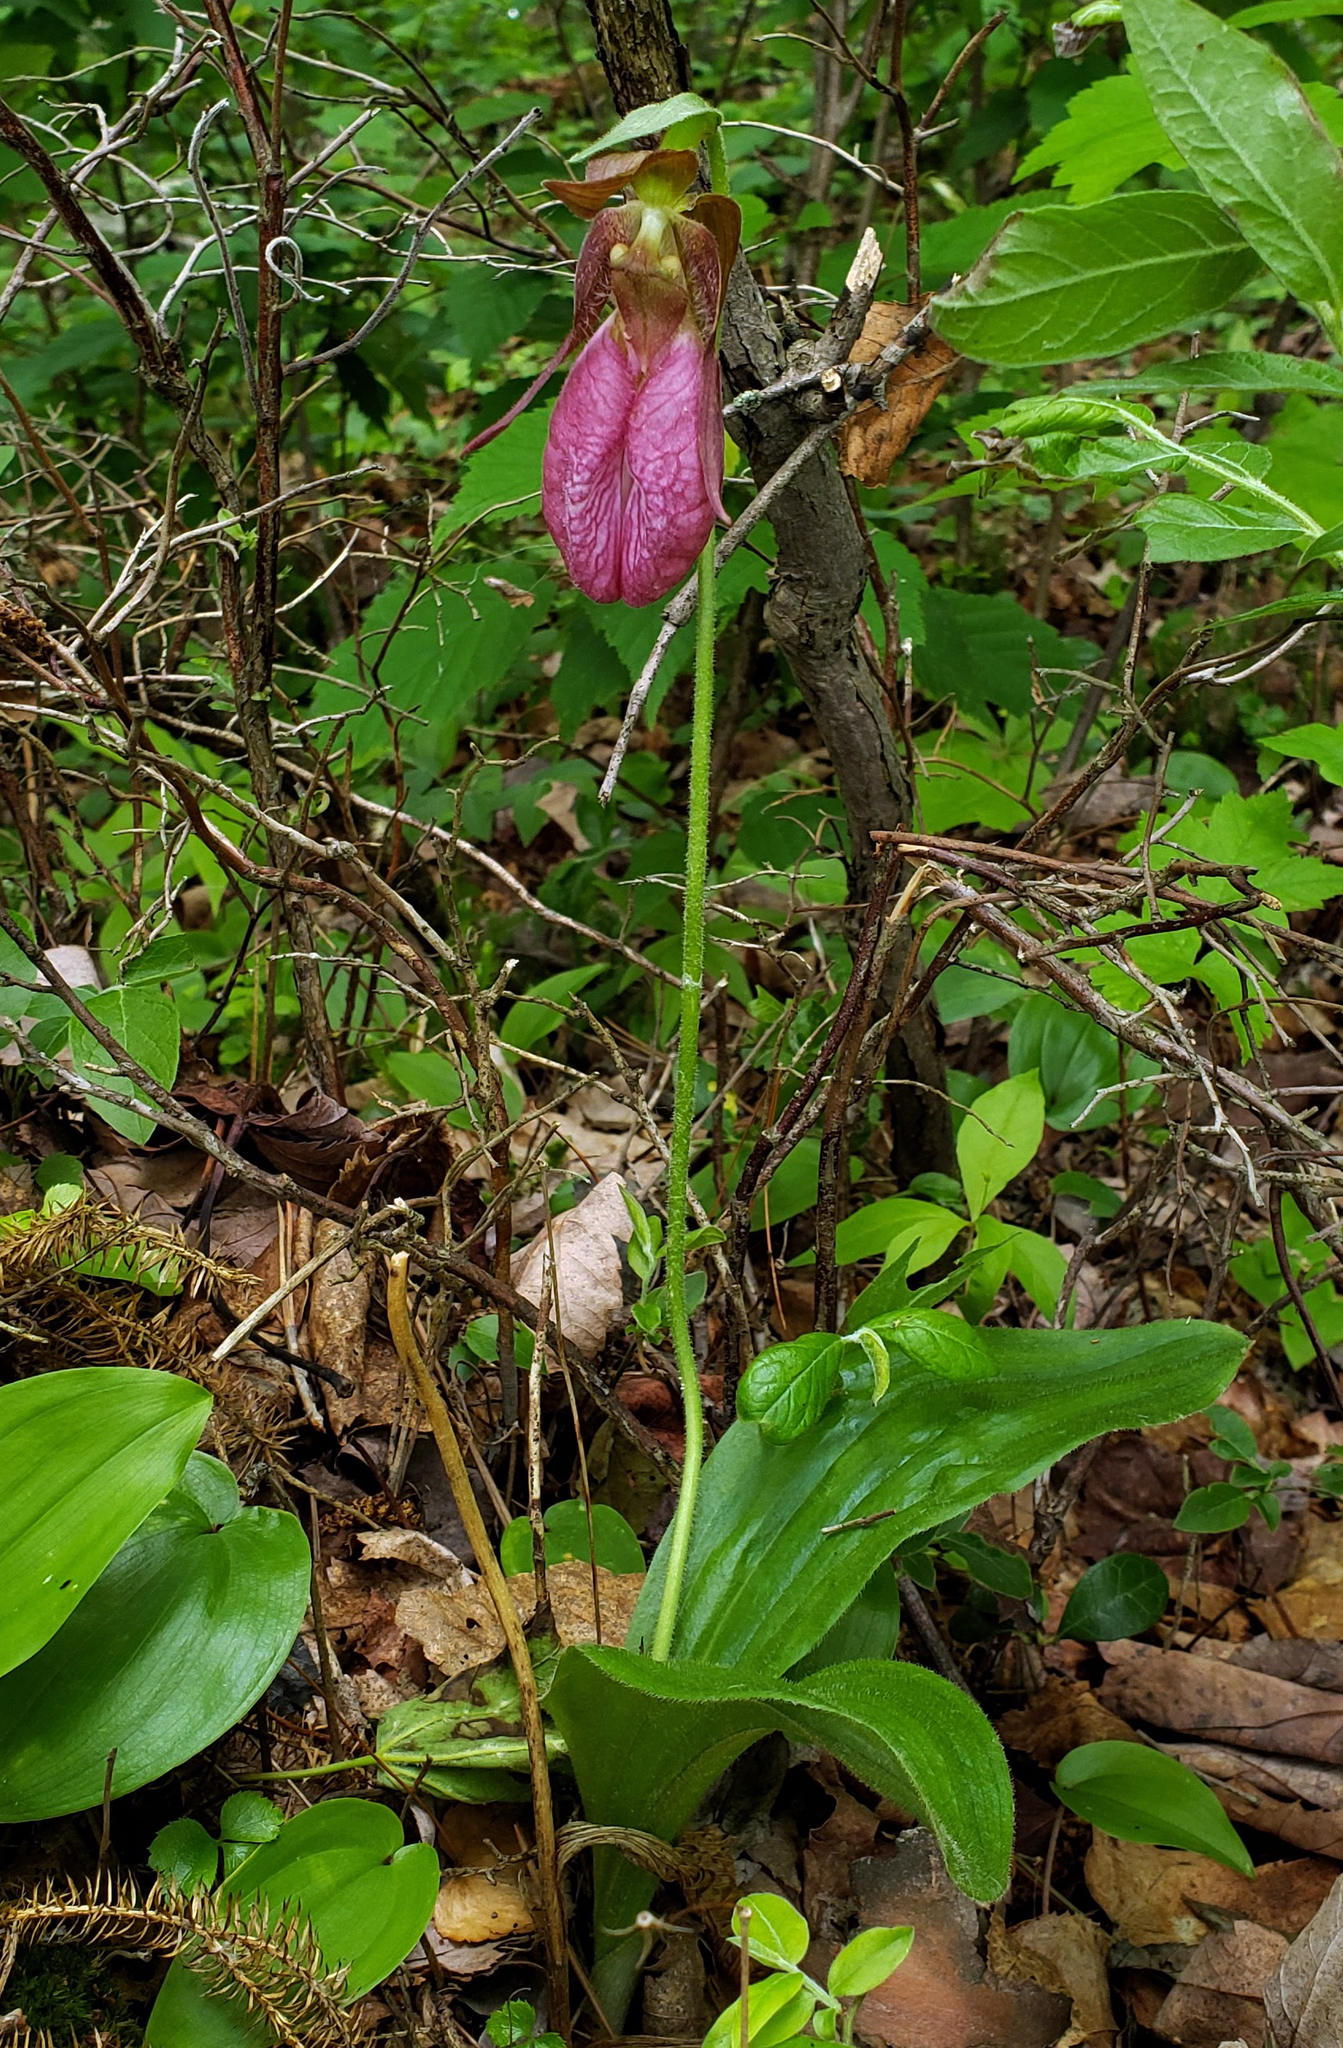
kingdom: Plantae
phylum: Tracheophyta
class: Liliopsida
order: Asparagales
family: Orchidaceae
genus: Cypripedium
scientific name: Cypripedium acaule
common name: Pink lady's-slipper
